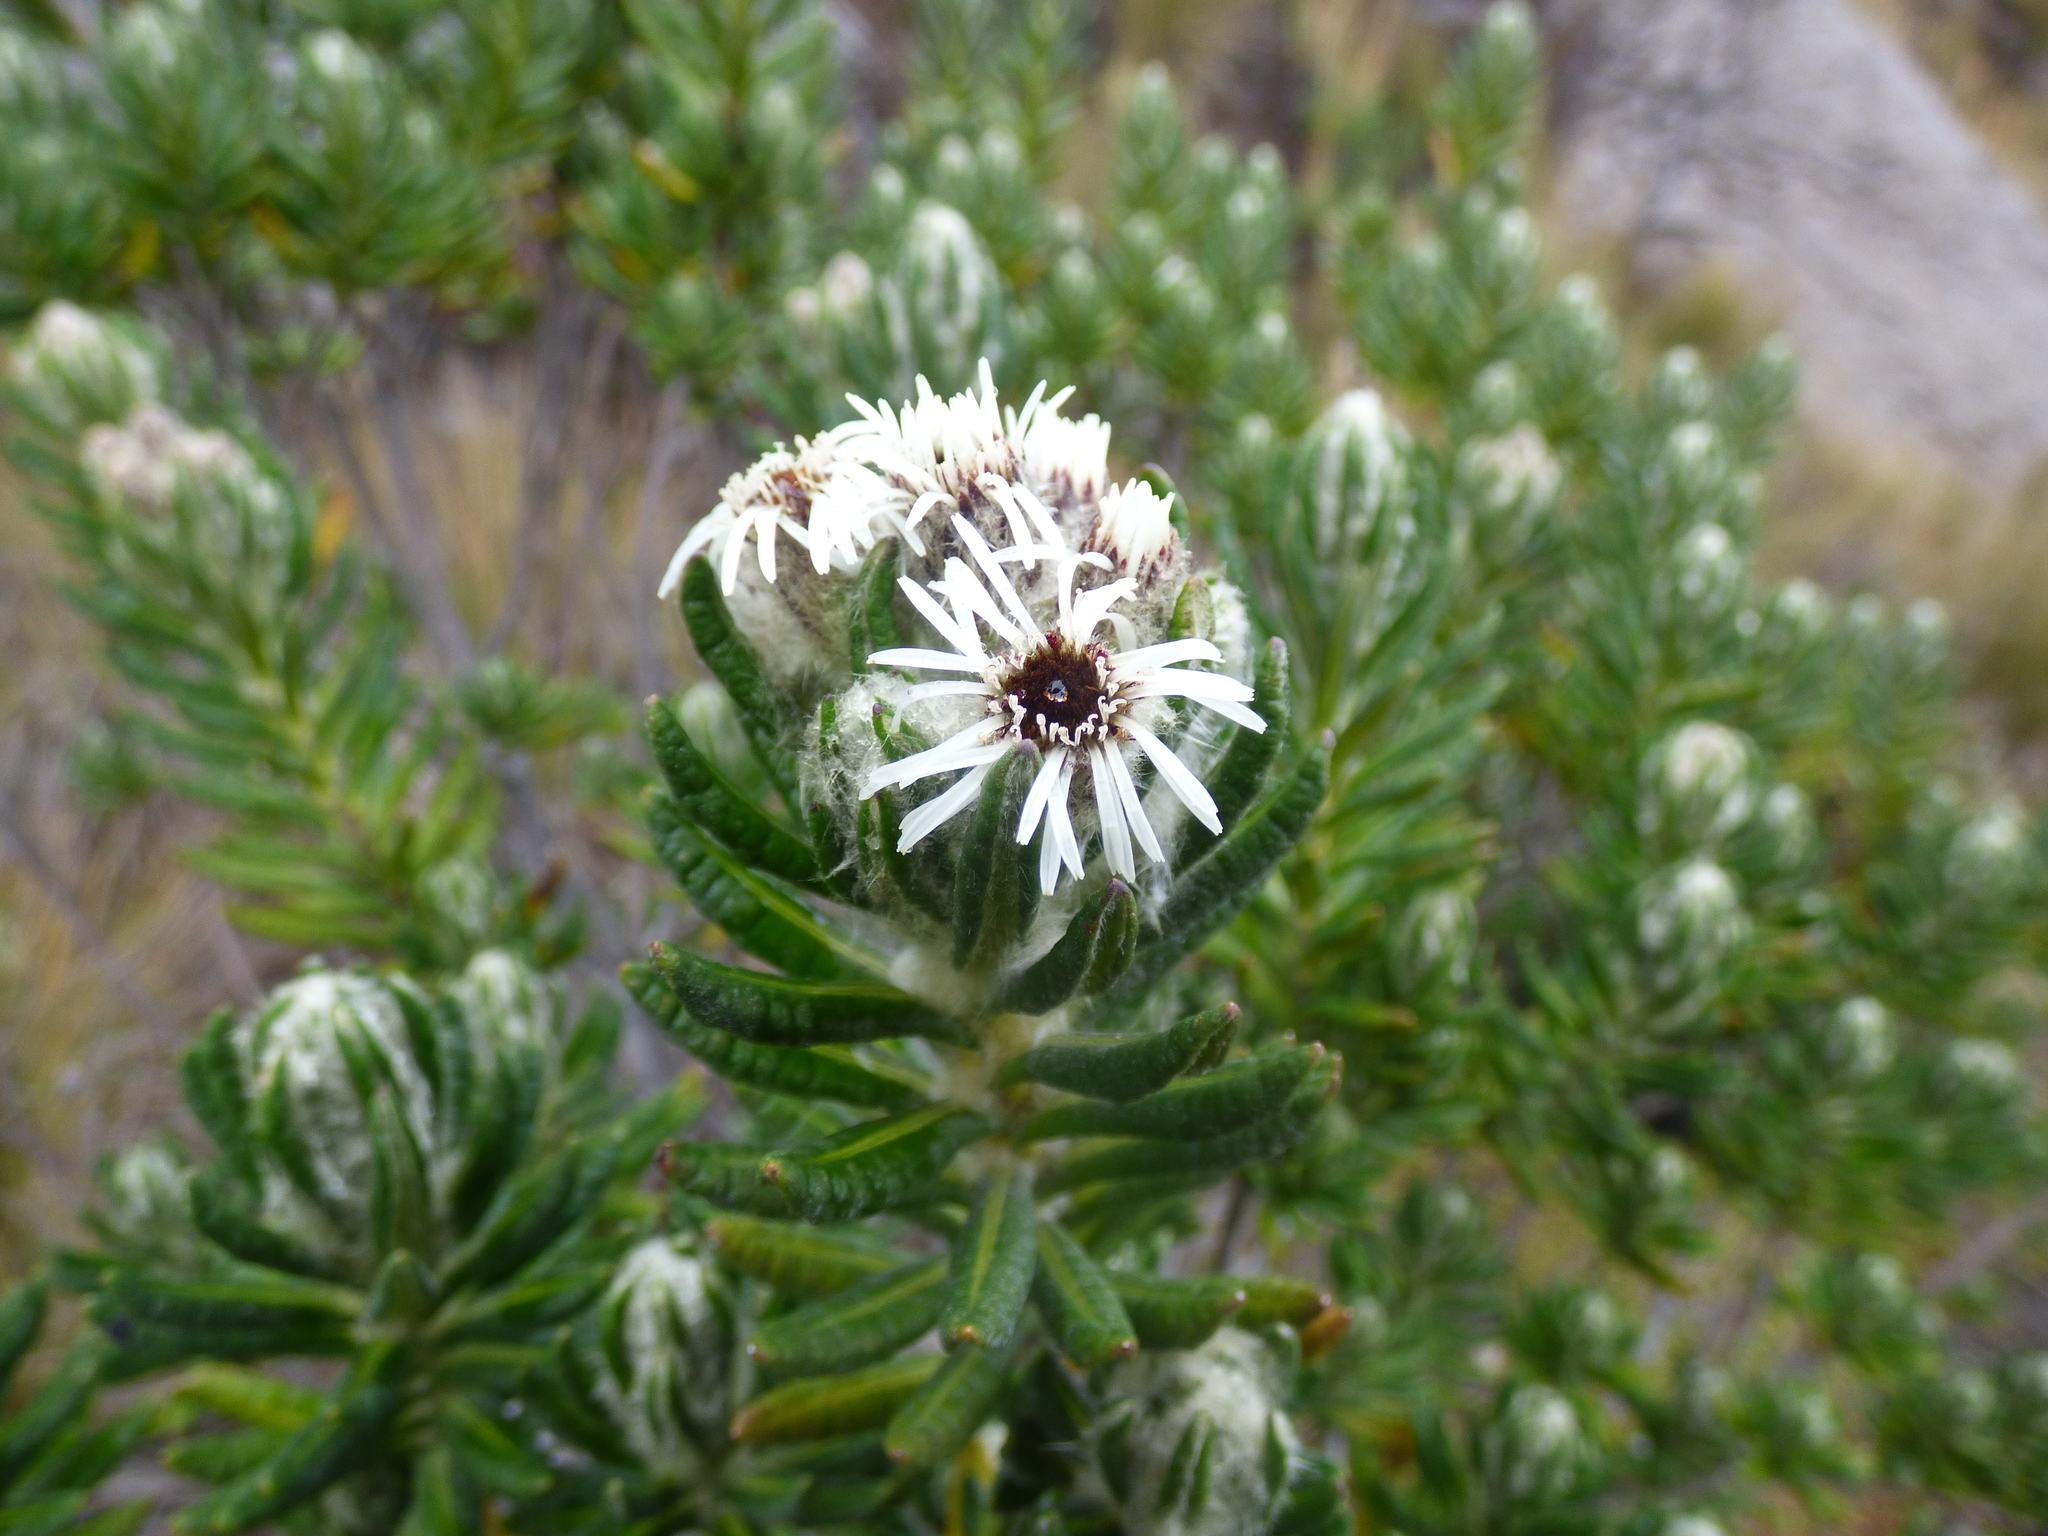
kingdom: Plantae
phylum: Tracheophyta
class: Magnoliopsida
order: Asterales
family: Asteraceae
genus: Linochilus
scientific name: Linochilus eriophorus
